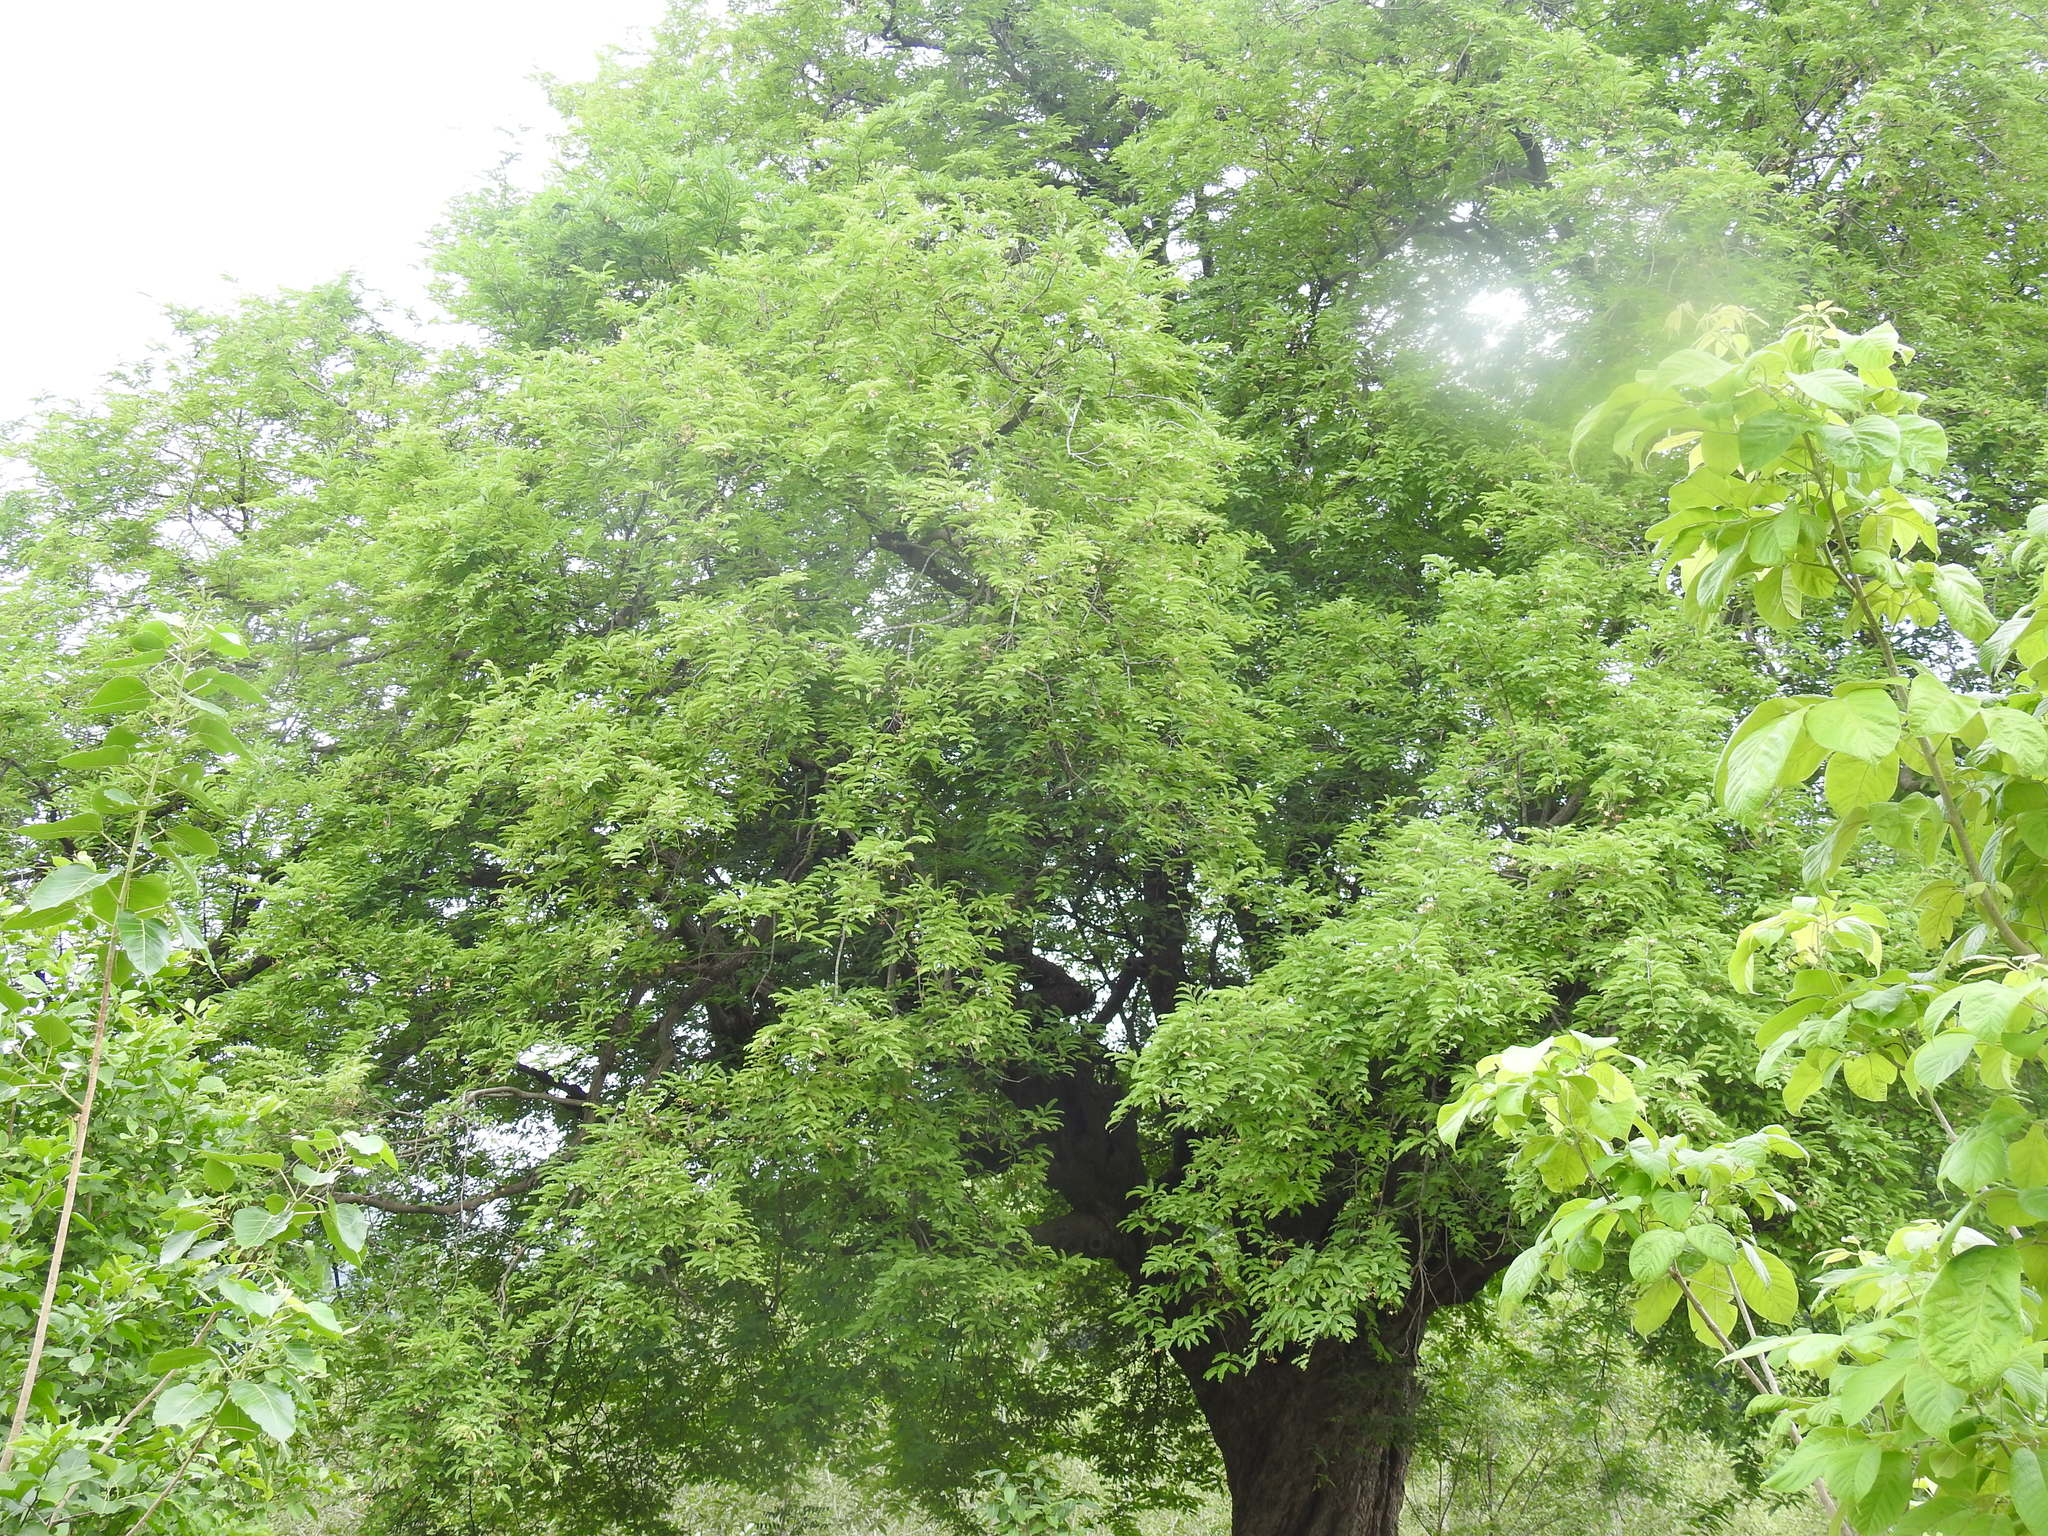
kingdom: Plantae
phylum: Tracheophyta
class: Magnoliopsida
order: Fabales
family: Fabaceae
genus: Tamarindus
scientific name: Tamarindus indica
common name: Tamarind
